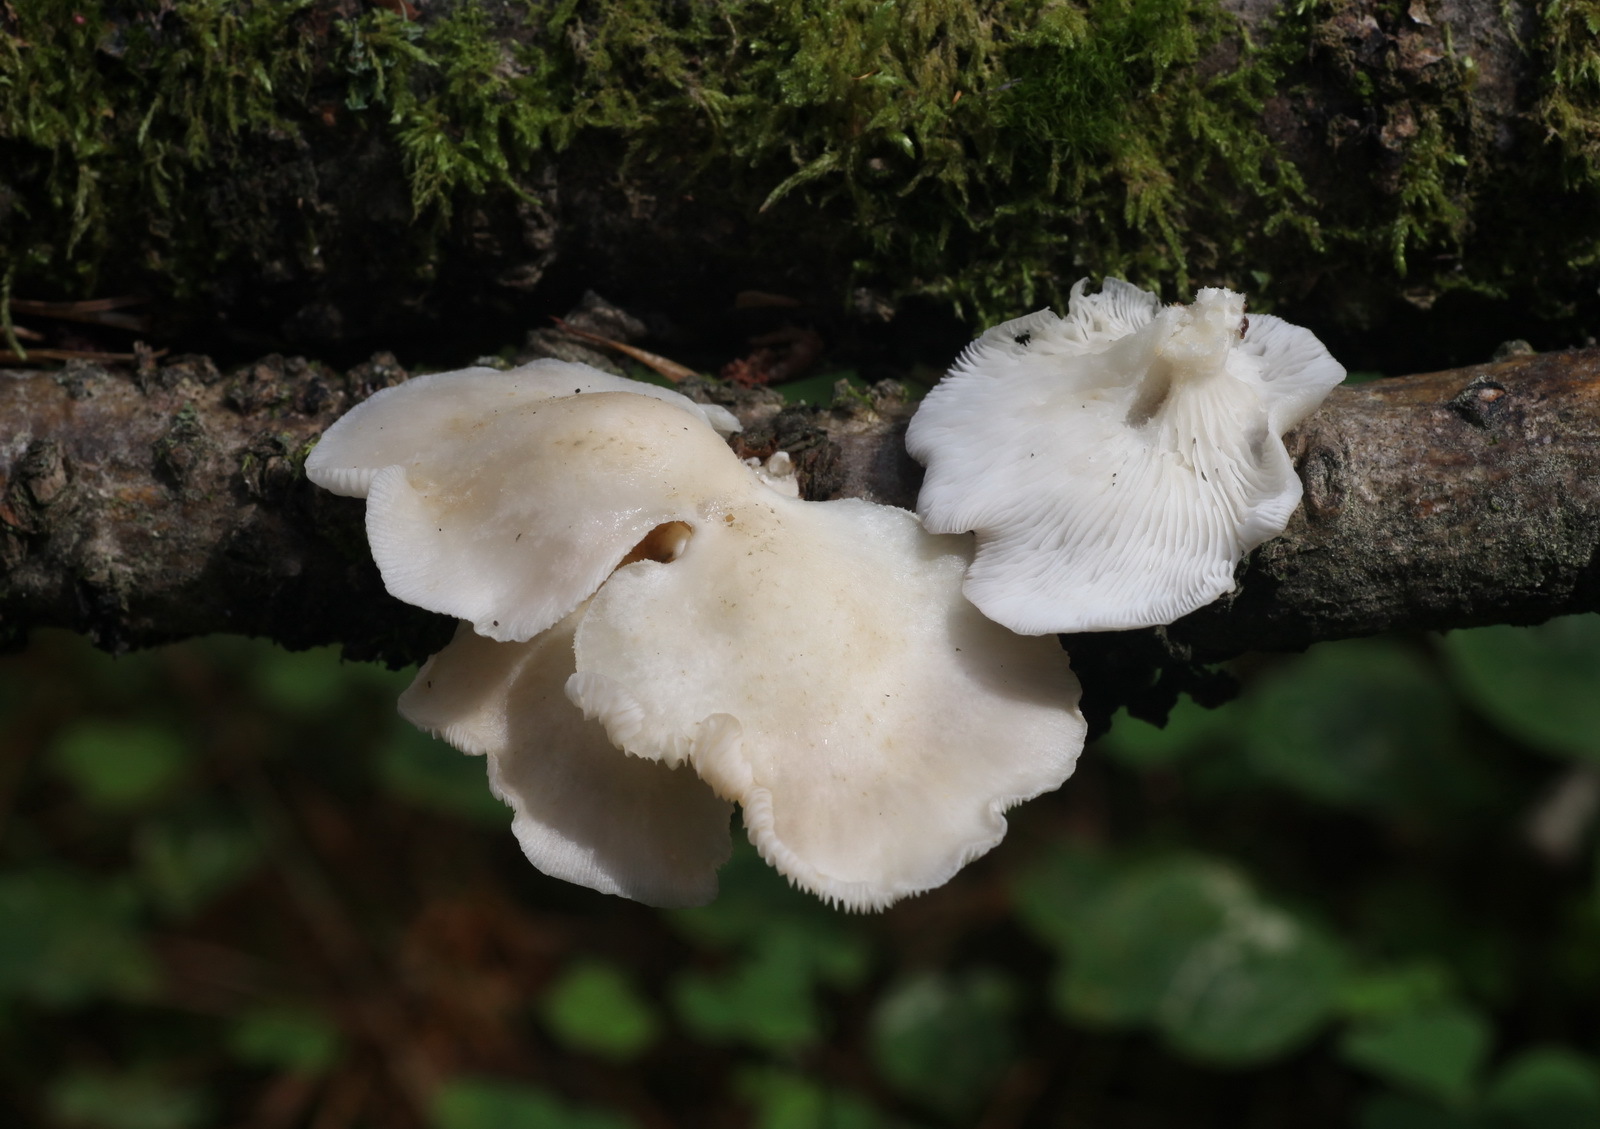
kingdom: Fungi
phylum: Basidiomycota
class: Agaricomycetes
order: Agaricales
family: Pleurotaceae
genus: Pleurotus
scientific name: Pleurotus pulmonarius
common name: Pale oyster
